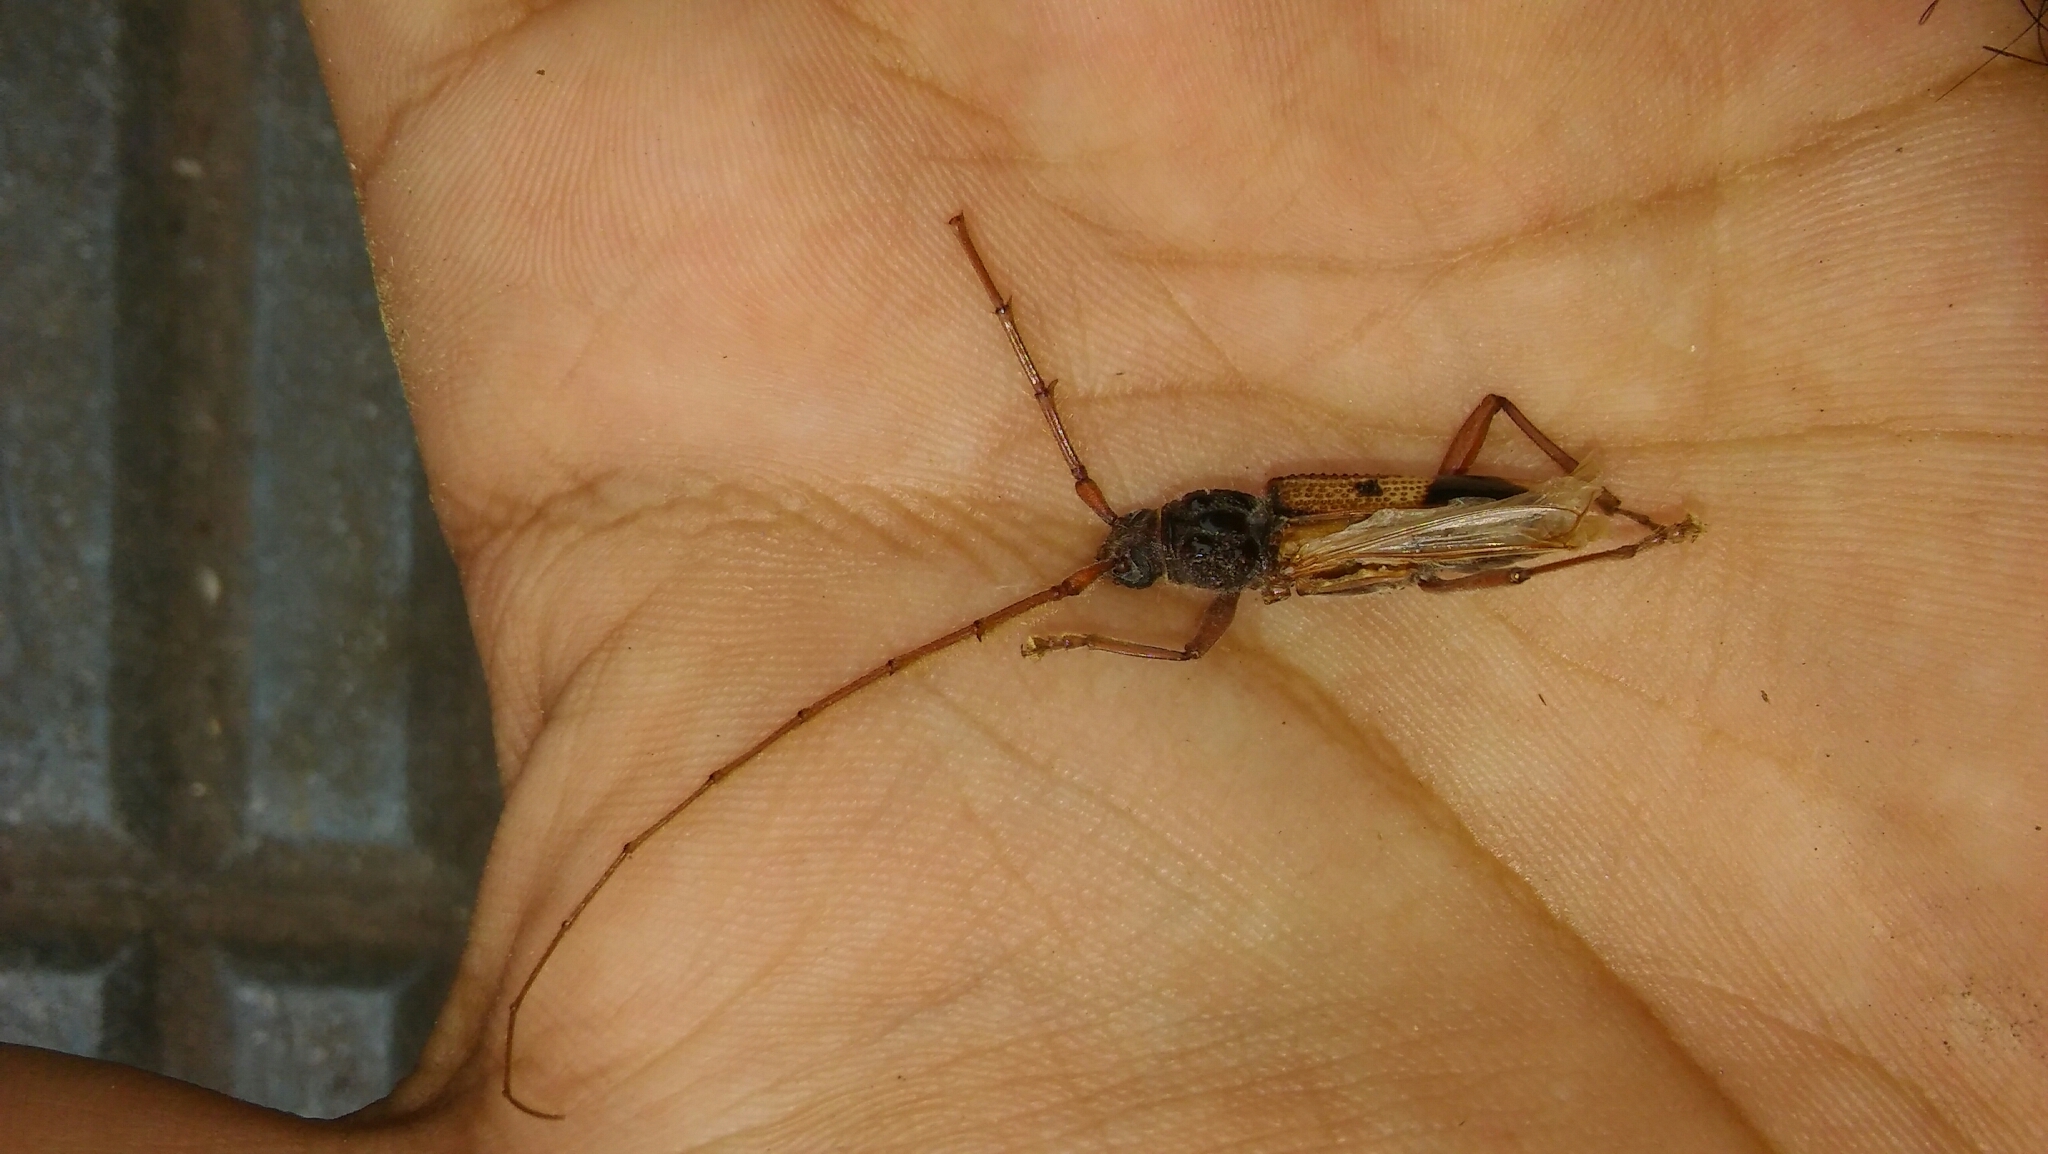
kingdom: Animalia
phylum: Arthropoda
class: Insecta
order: Coleoptera
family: Cerambycidae
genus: Phoracantha
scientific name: Phoracantha recurva
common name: Eucalyptus longhorned borer
